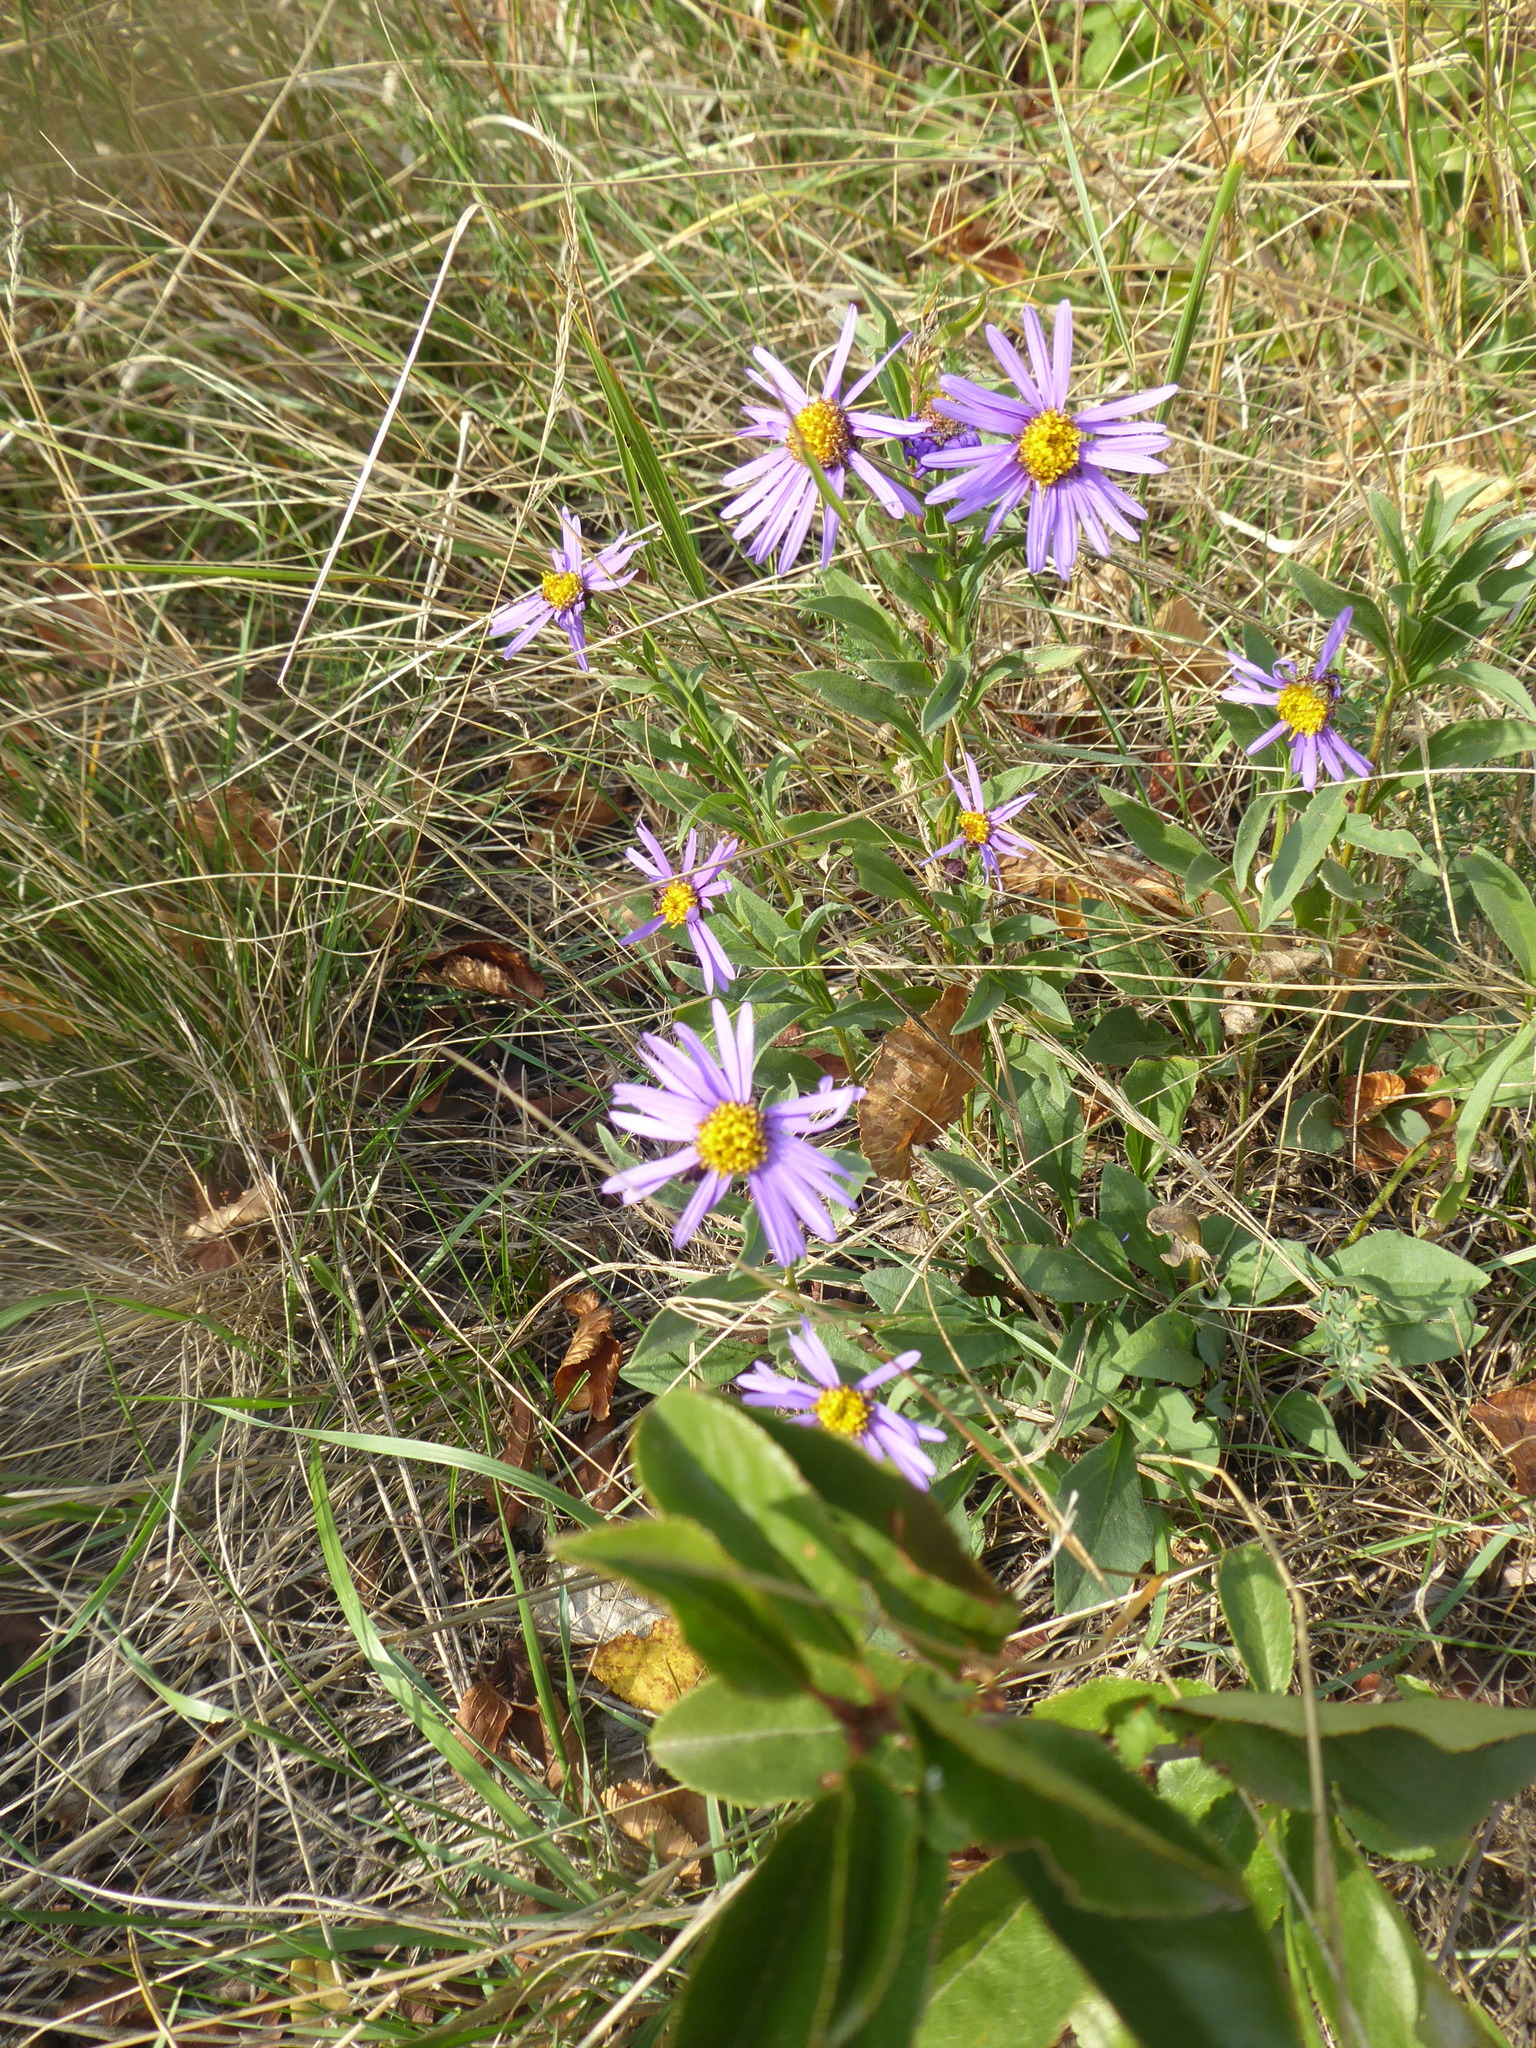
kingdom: Plantae
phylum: Tracheophyta
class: Magnoliopsida
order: Asterales
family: Asteraceae
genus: Aster
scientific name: Aster amellus
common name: European michaelmas daisy
